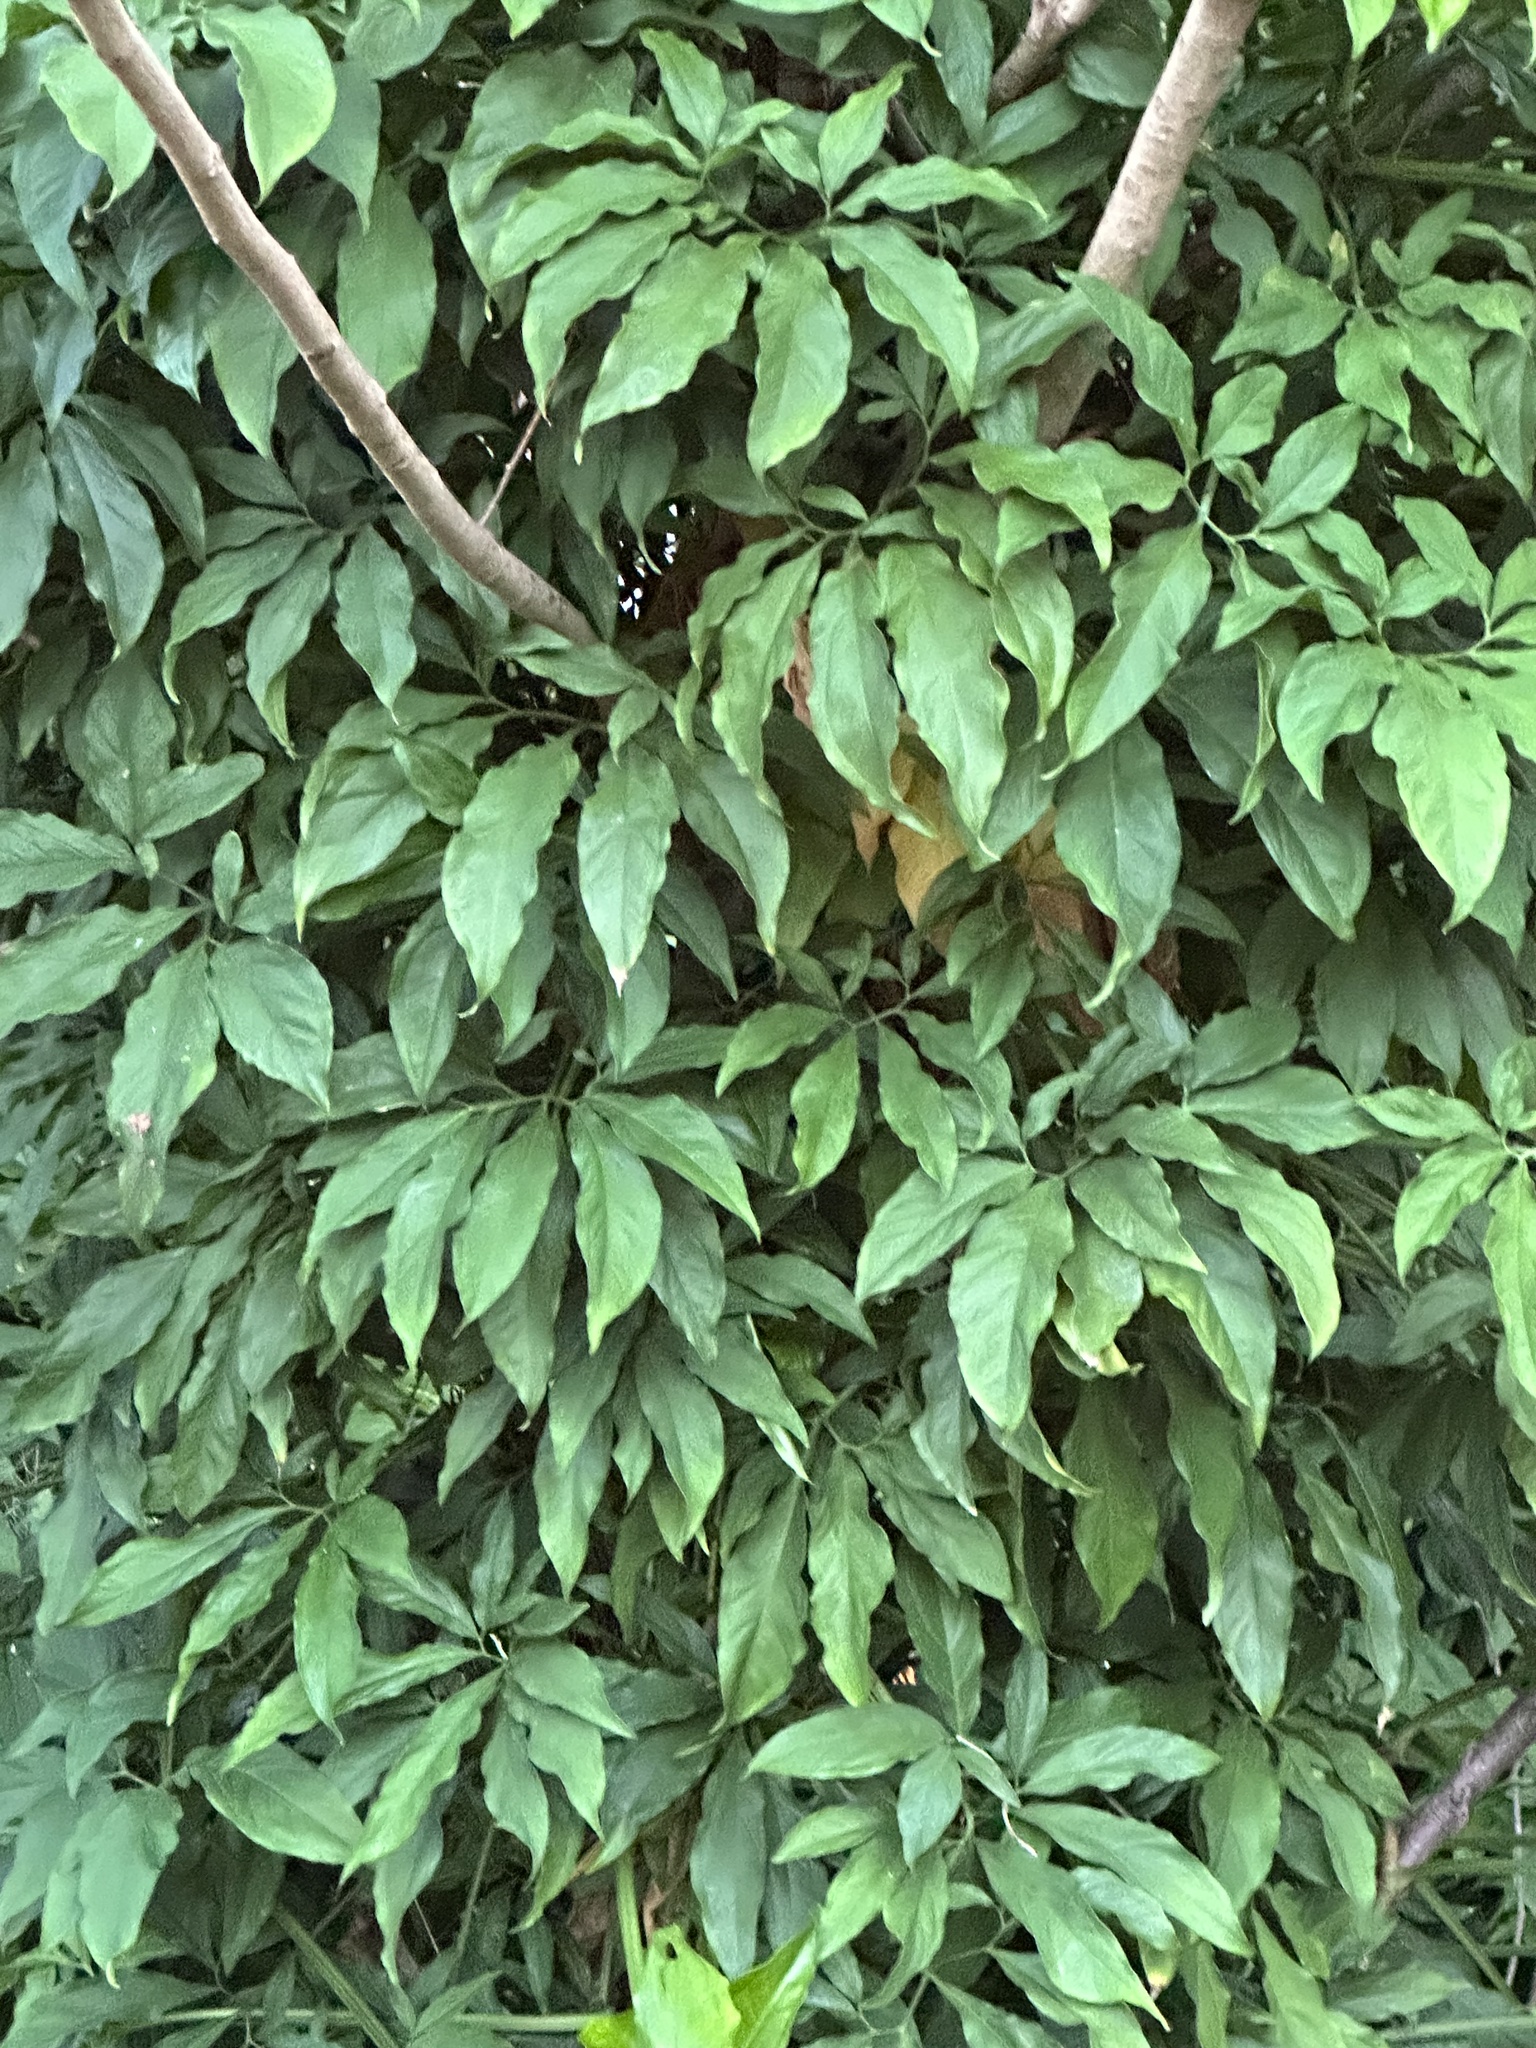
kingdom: Plantae
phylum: Tracheophyta
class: Liliopsida
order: Alismatales
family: Araceae
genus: Syngonium
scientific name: Syngonium podophyllum
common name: American evergreen
